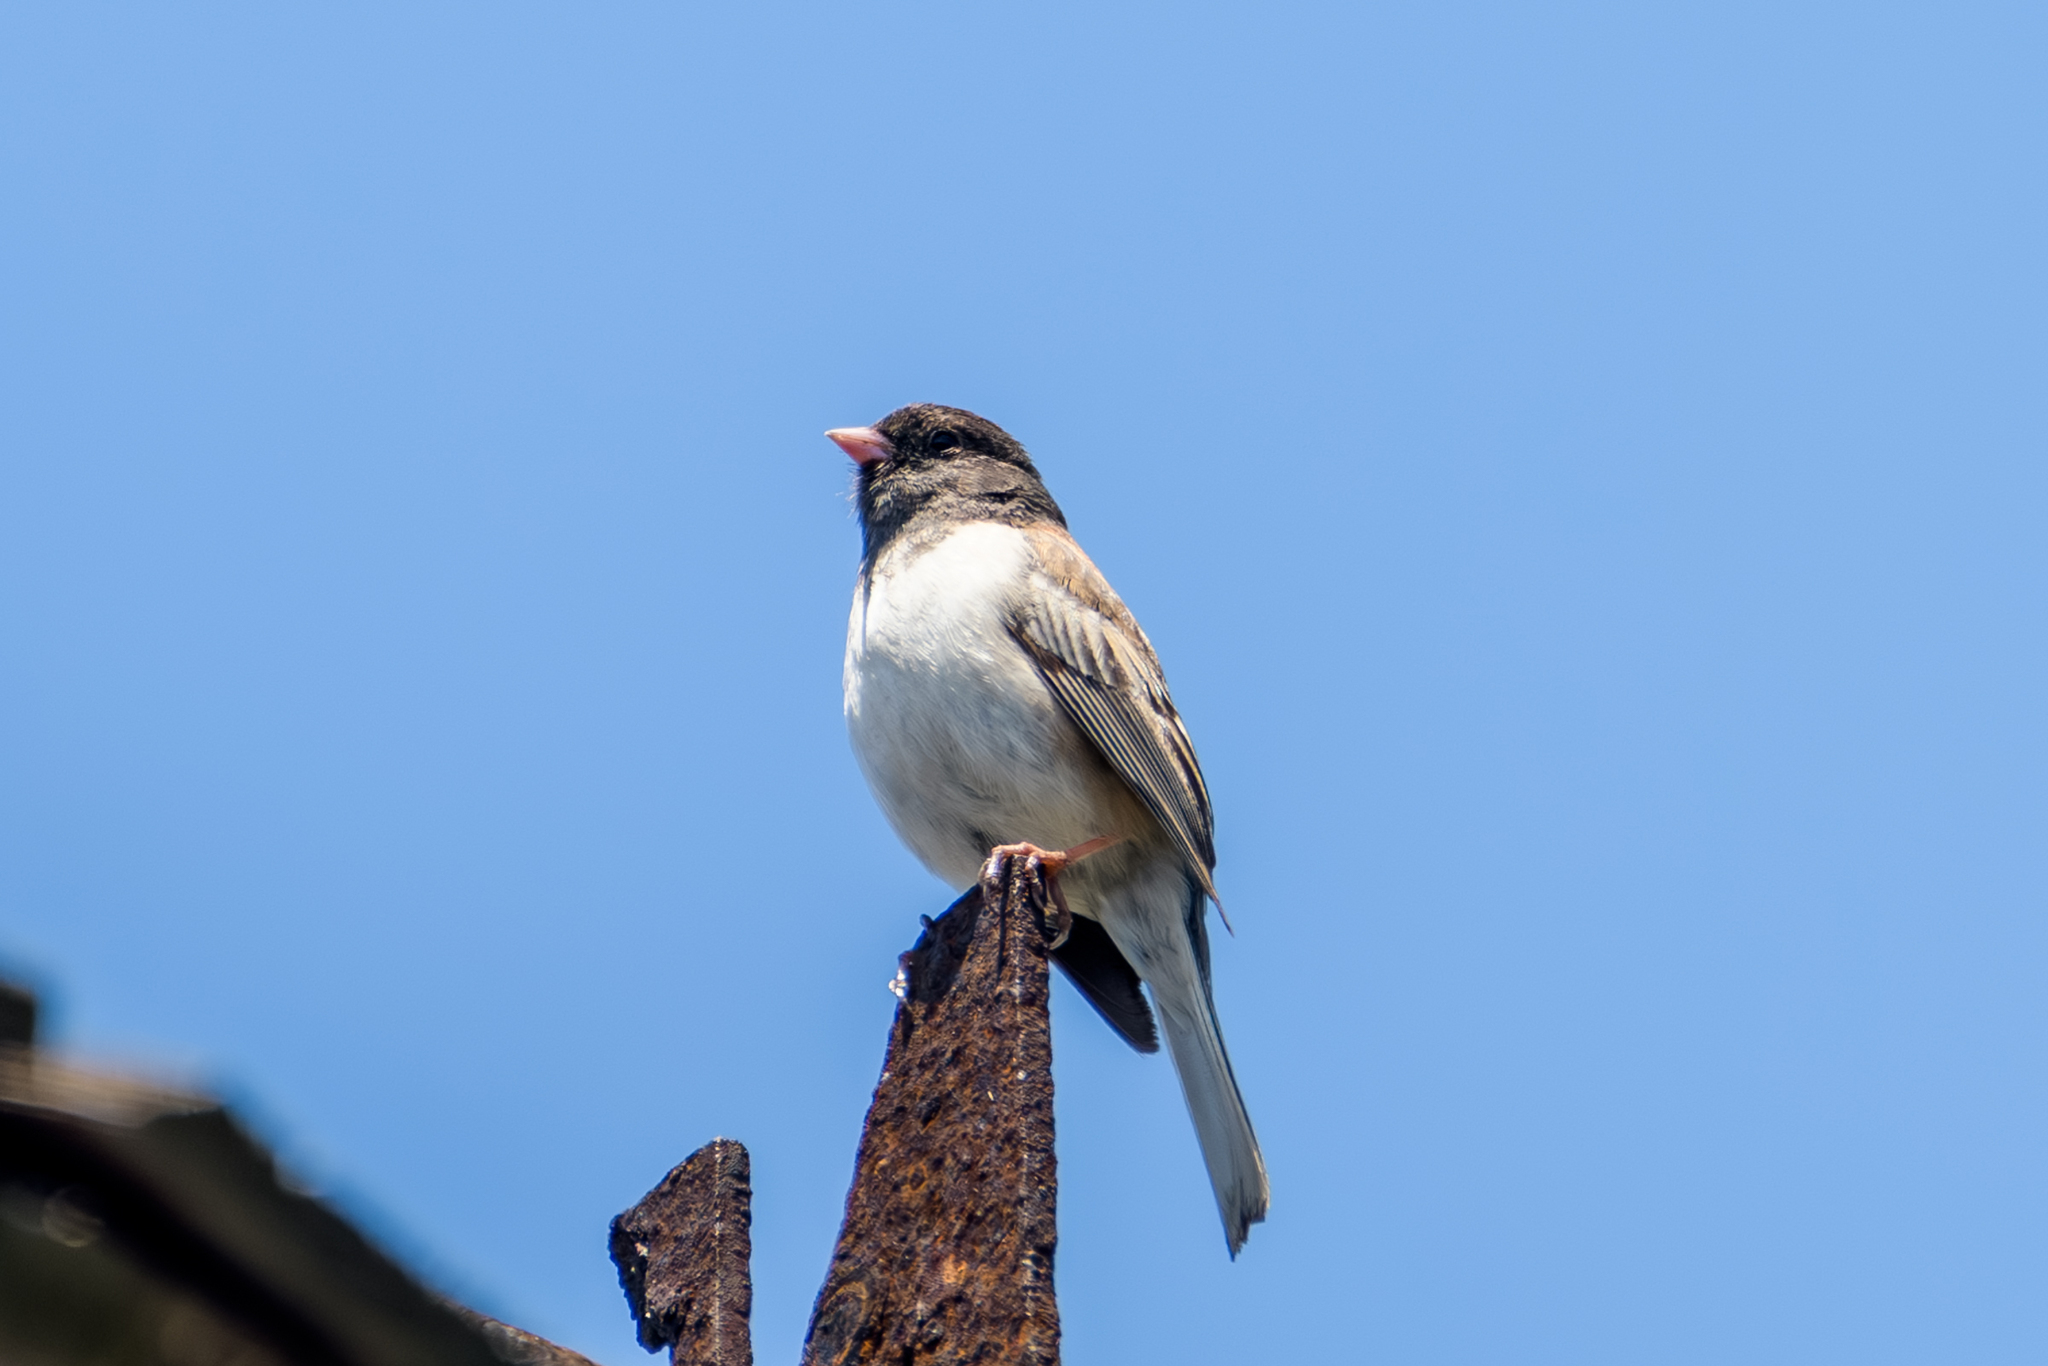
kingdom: Animalia
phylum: Chordata
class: Aves
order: Passeriformes
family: Passerellidae
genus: Junco
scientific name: Junco hyemalis
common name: Dark-eyed junco
